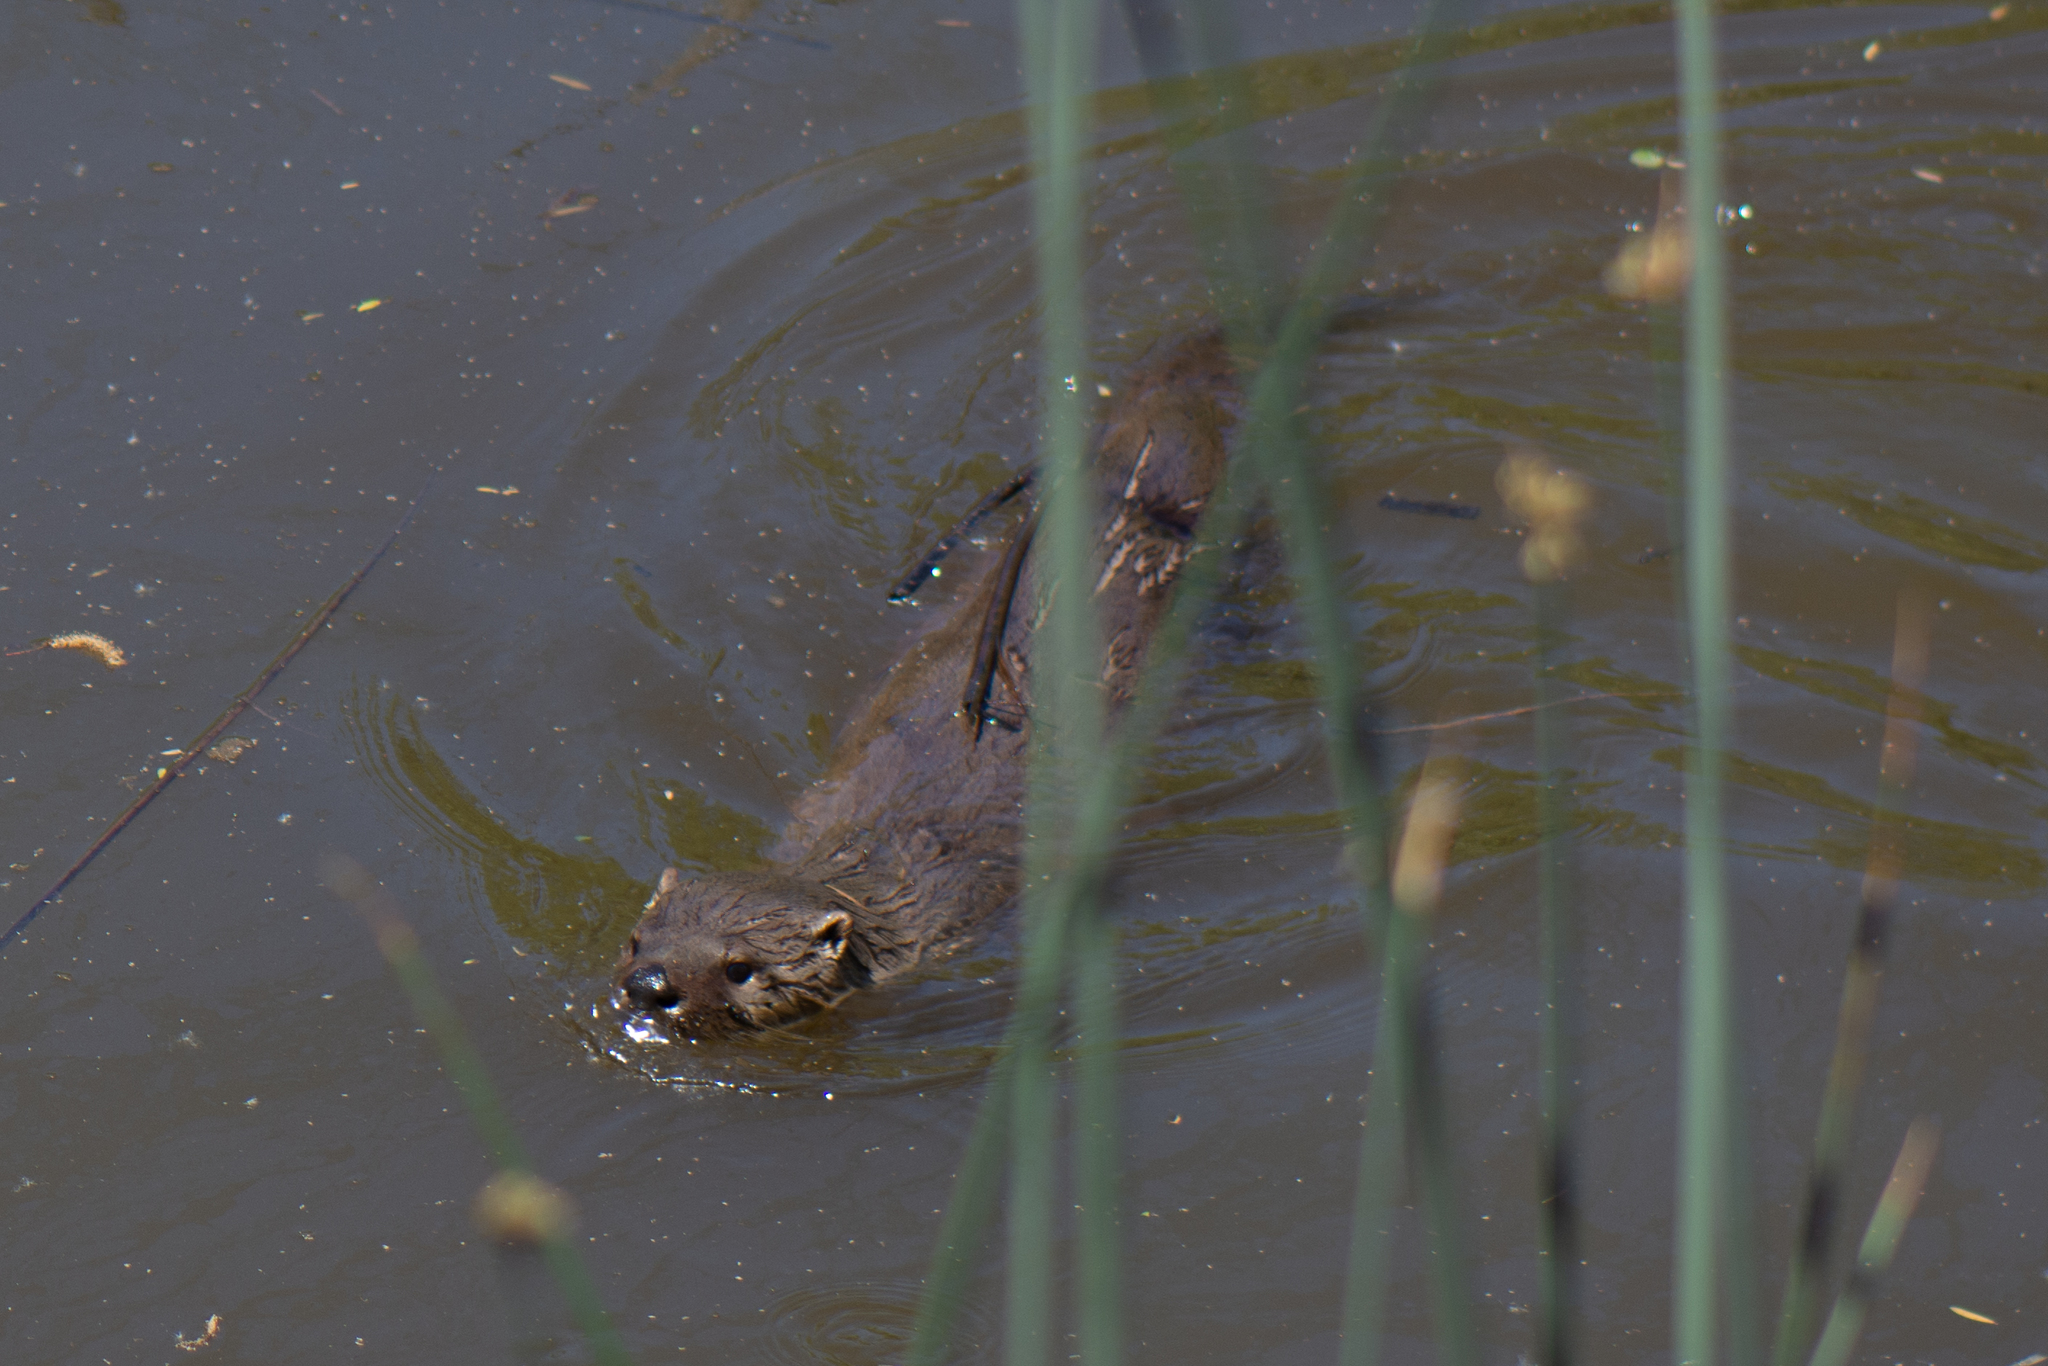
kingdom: Animalia
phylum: Chordata
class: Mammalia
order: Carnivora
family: Mustelidae
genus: Lontra
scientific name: Lontra canadensis
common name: North american river otter
